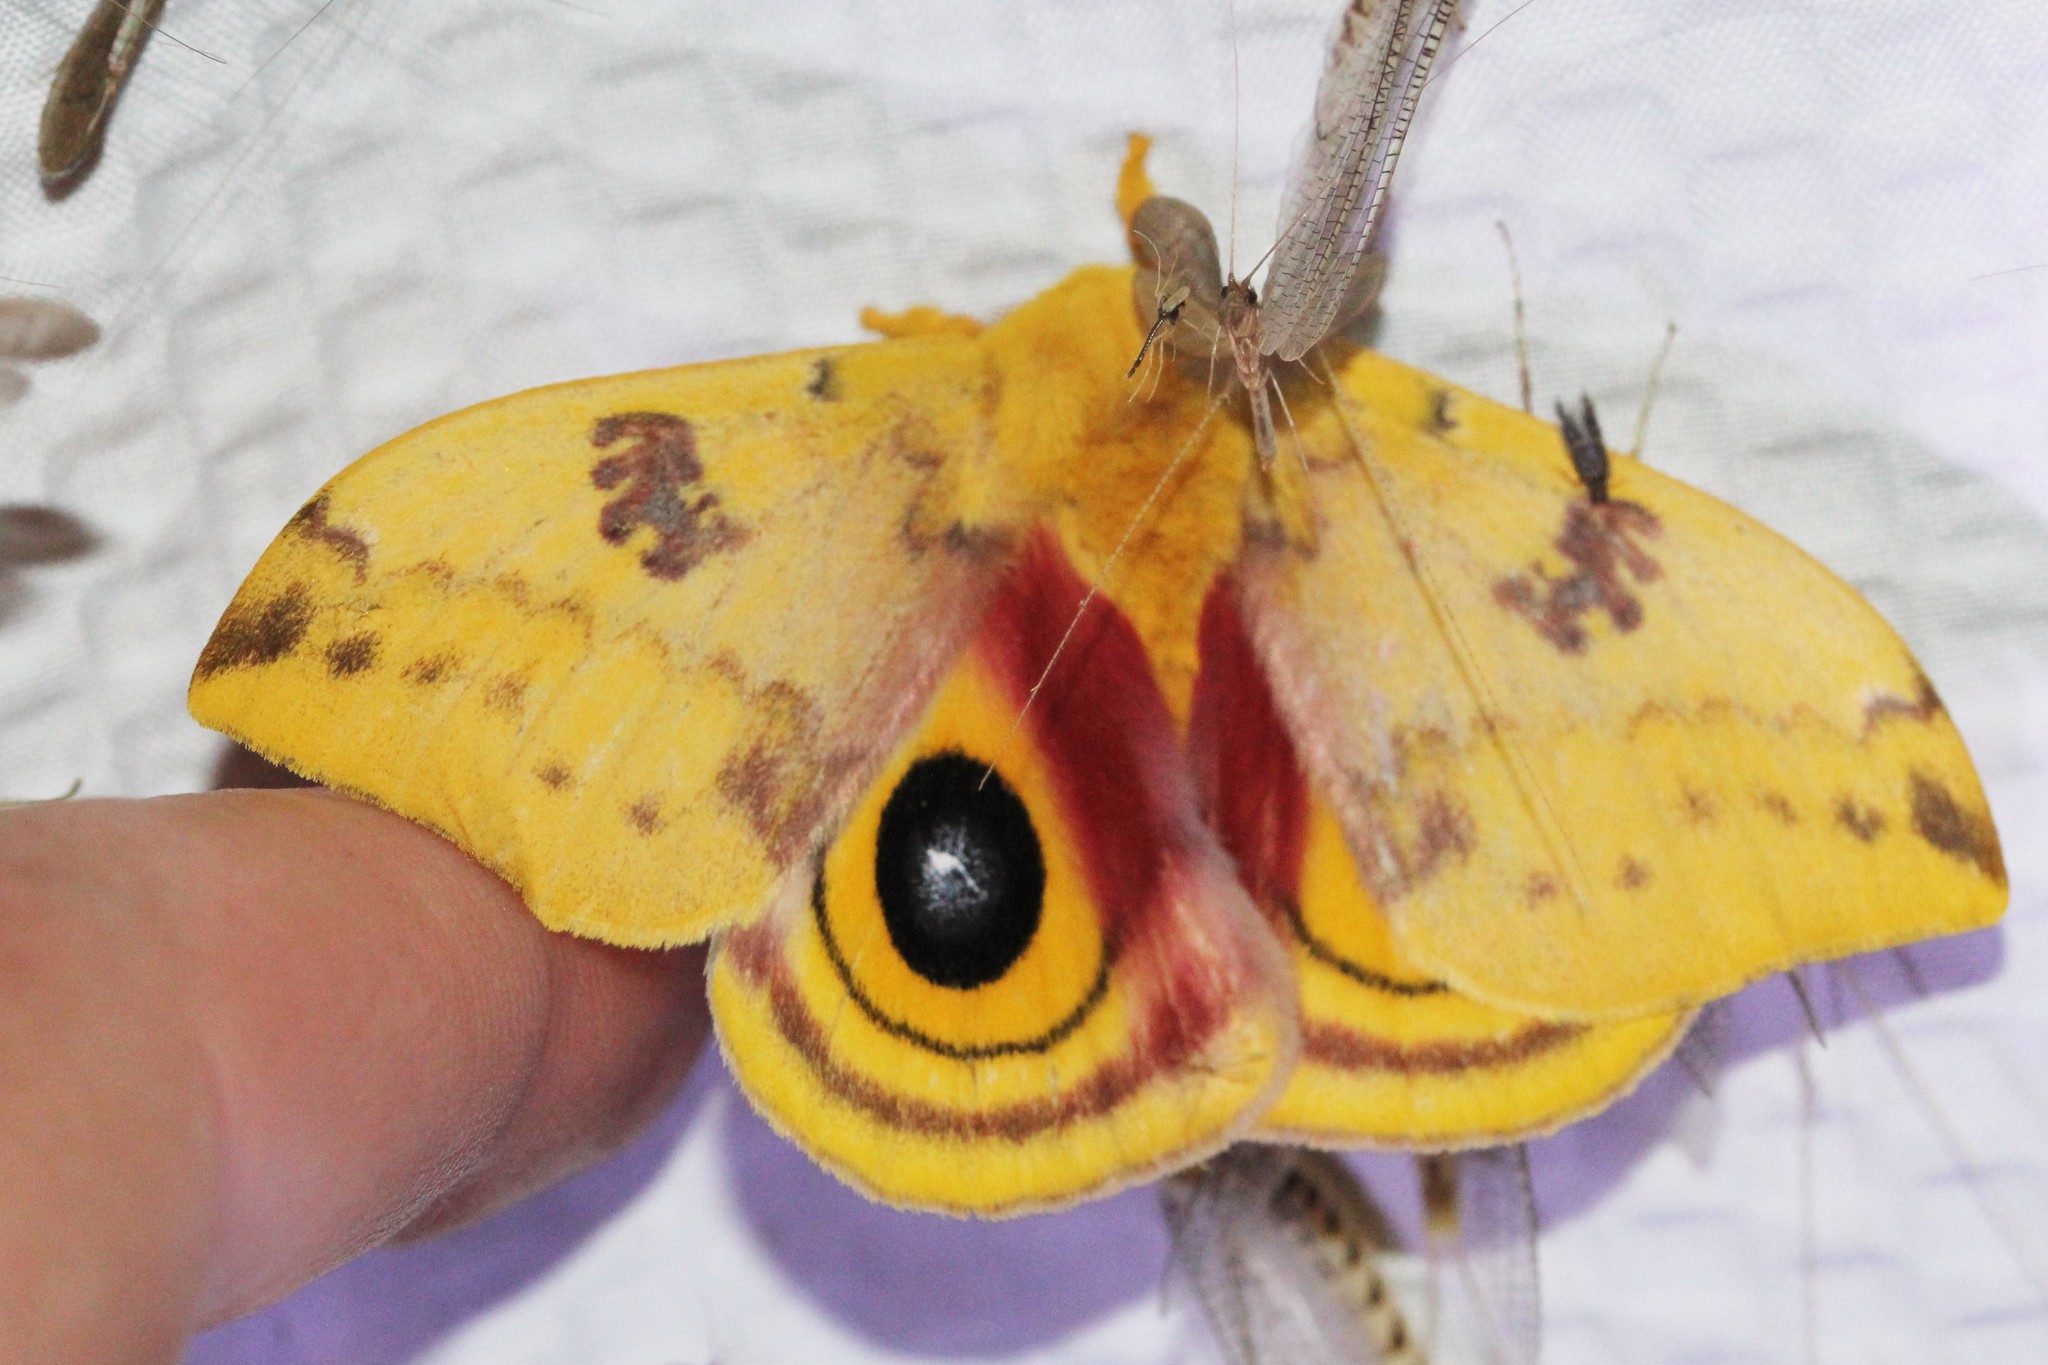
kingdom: Animalia
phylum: Arthropoda
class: Insecta
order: Lepidoptera
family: Saturniidae
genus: Automeris
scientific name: Automeris io
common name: Io moth
